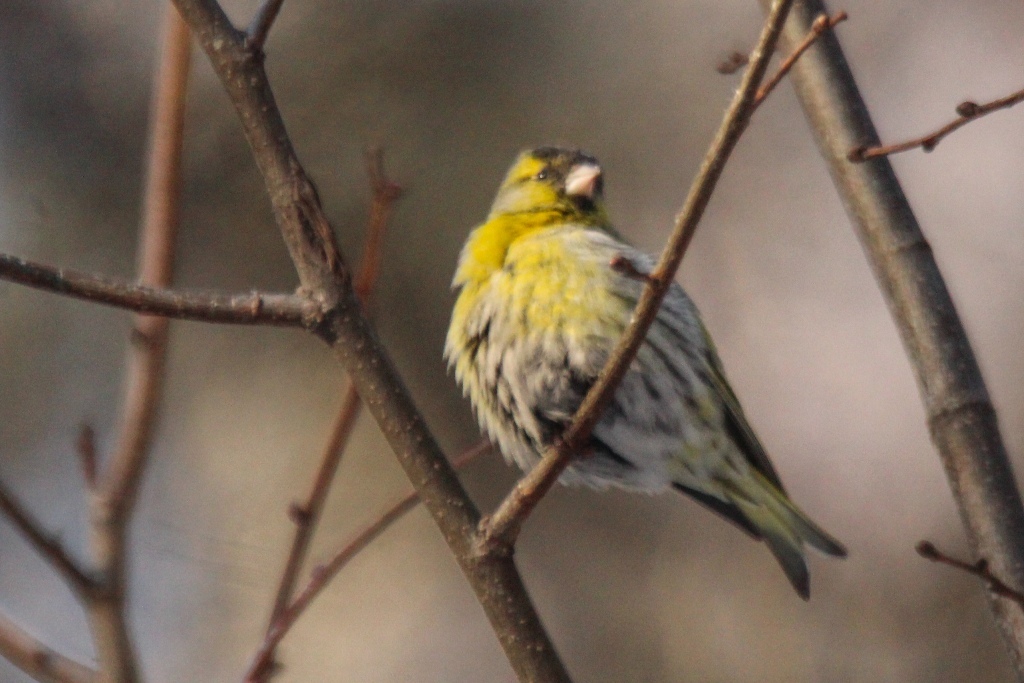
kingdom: Animalia
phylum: Chordata
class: Aves
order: Passeriformes
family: Fringillidae
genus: Spinus
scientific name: Spinus spinus
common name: Eurasian siskin
